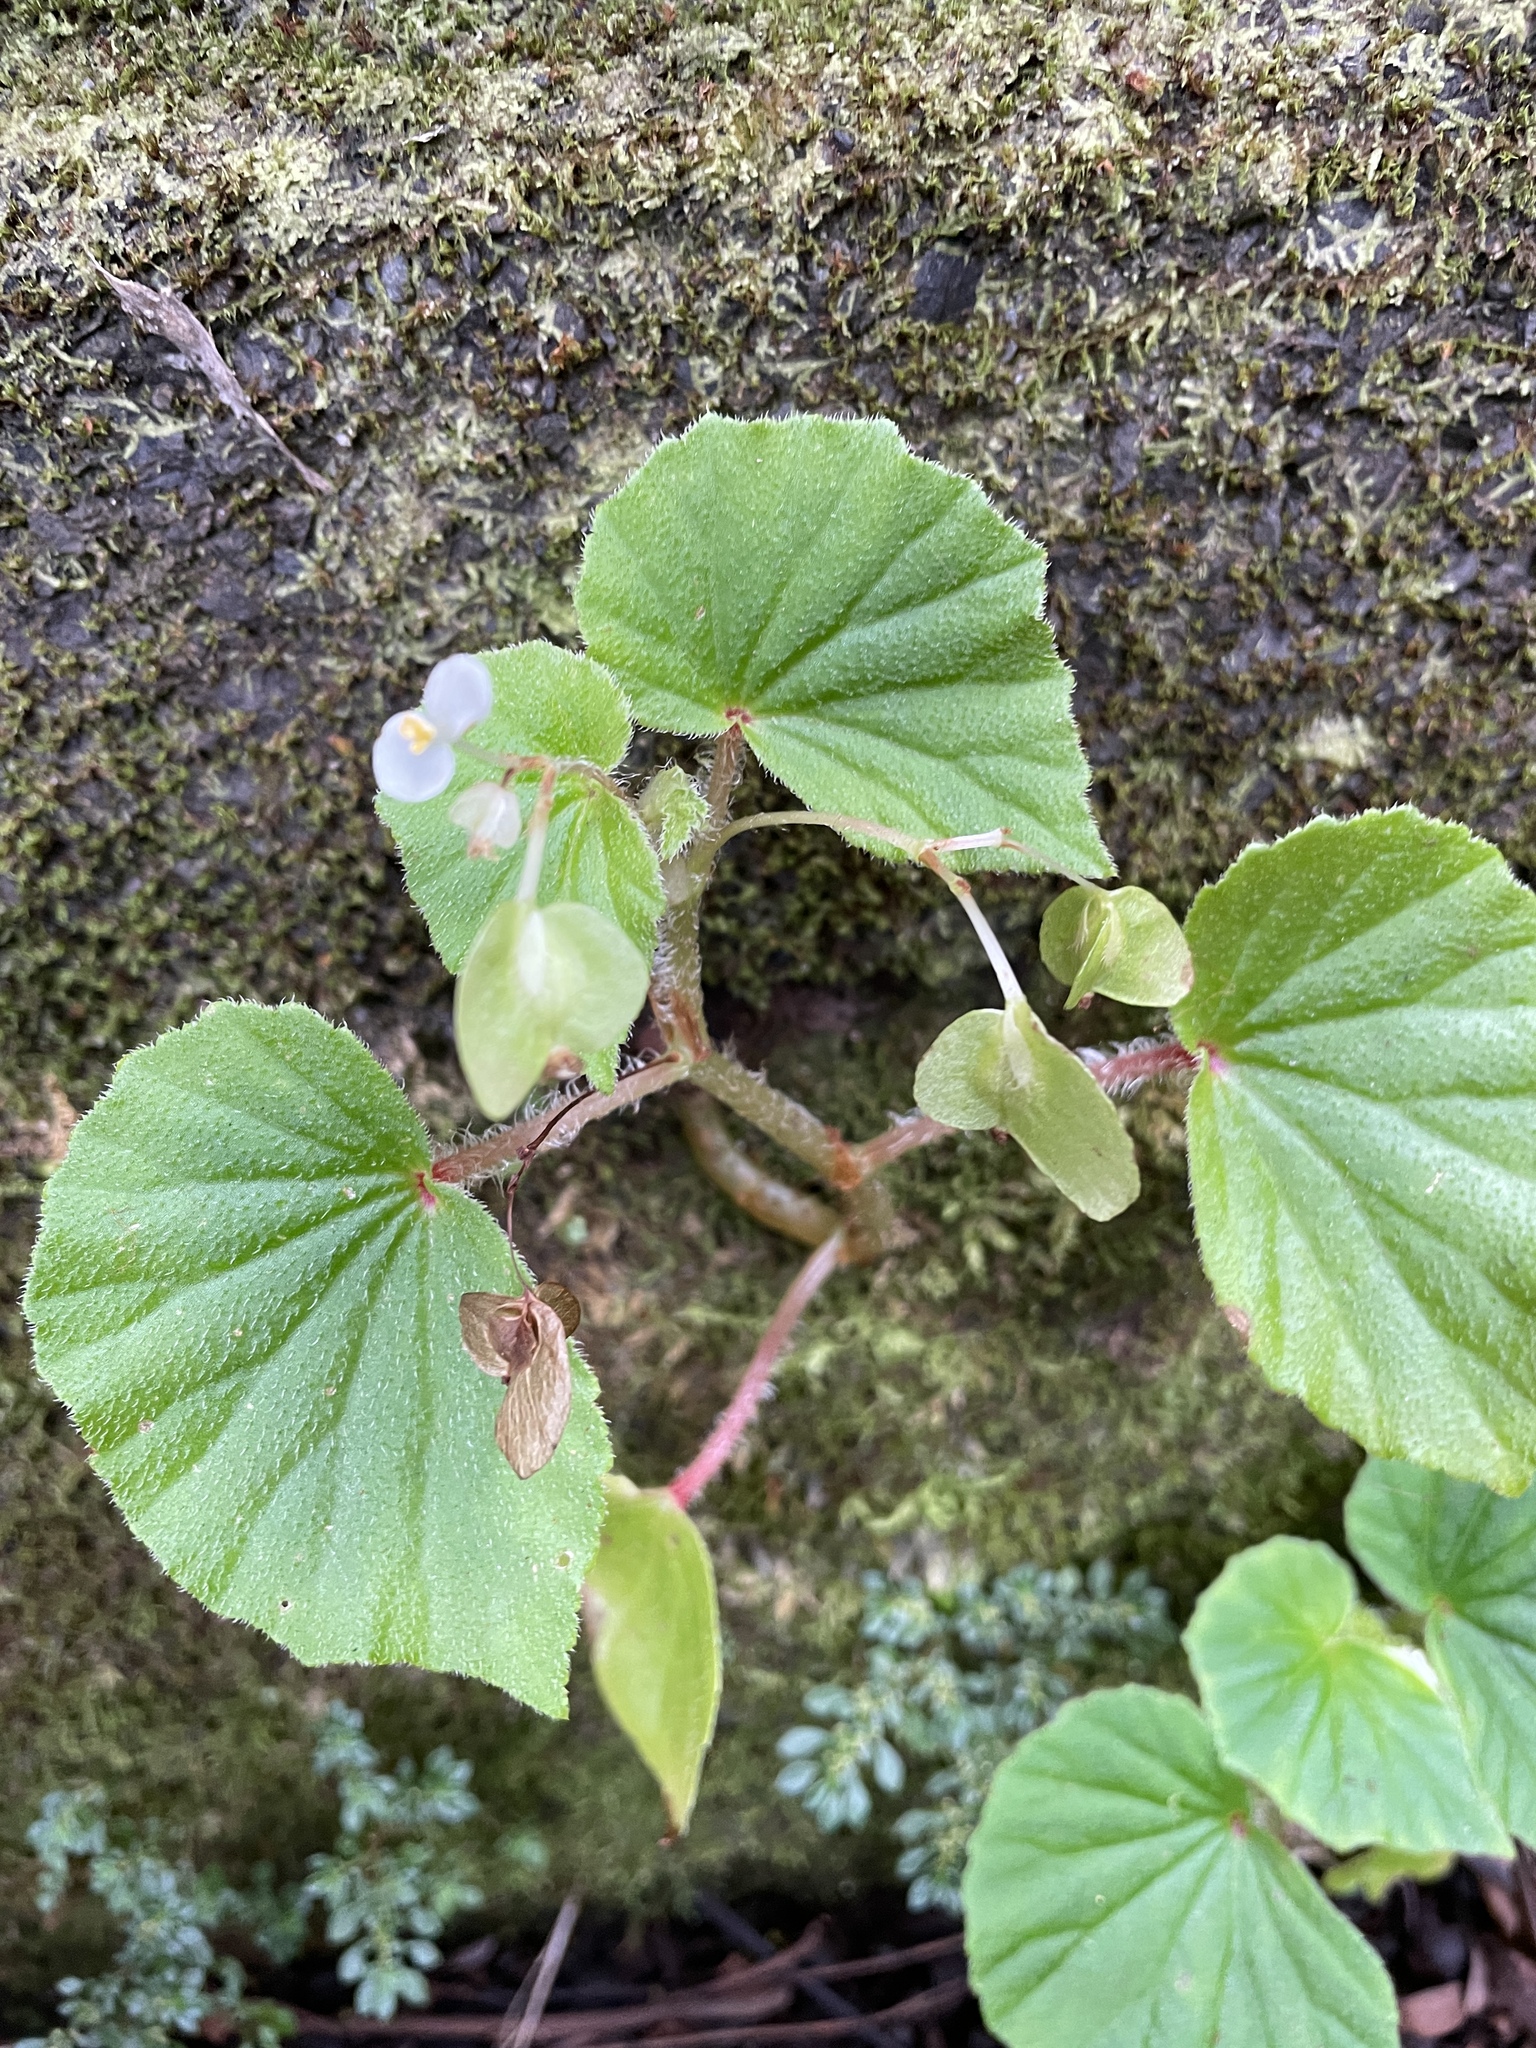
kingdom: Plantae
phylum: Tracheophyta
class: Magnoliopsida
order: Cucurbitales
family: Begoniaceae
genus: Begonia
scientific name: Begonia hirtella
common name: Brazilian begonia
